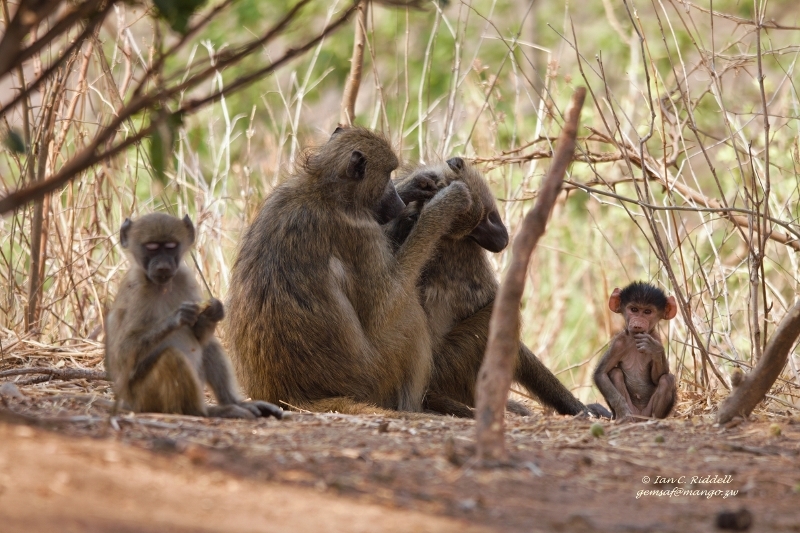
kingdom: Animalia
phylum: Chordata
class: Mammalia
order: Primates
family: Cercopithecidae
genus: Papio
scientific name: Papio ursinus
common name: Chacma baboon
